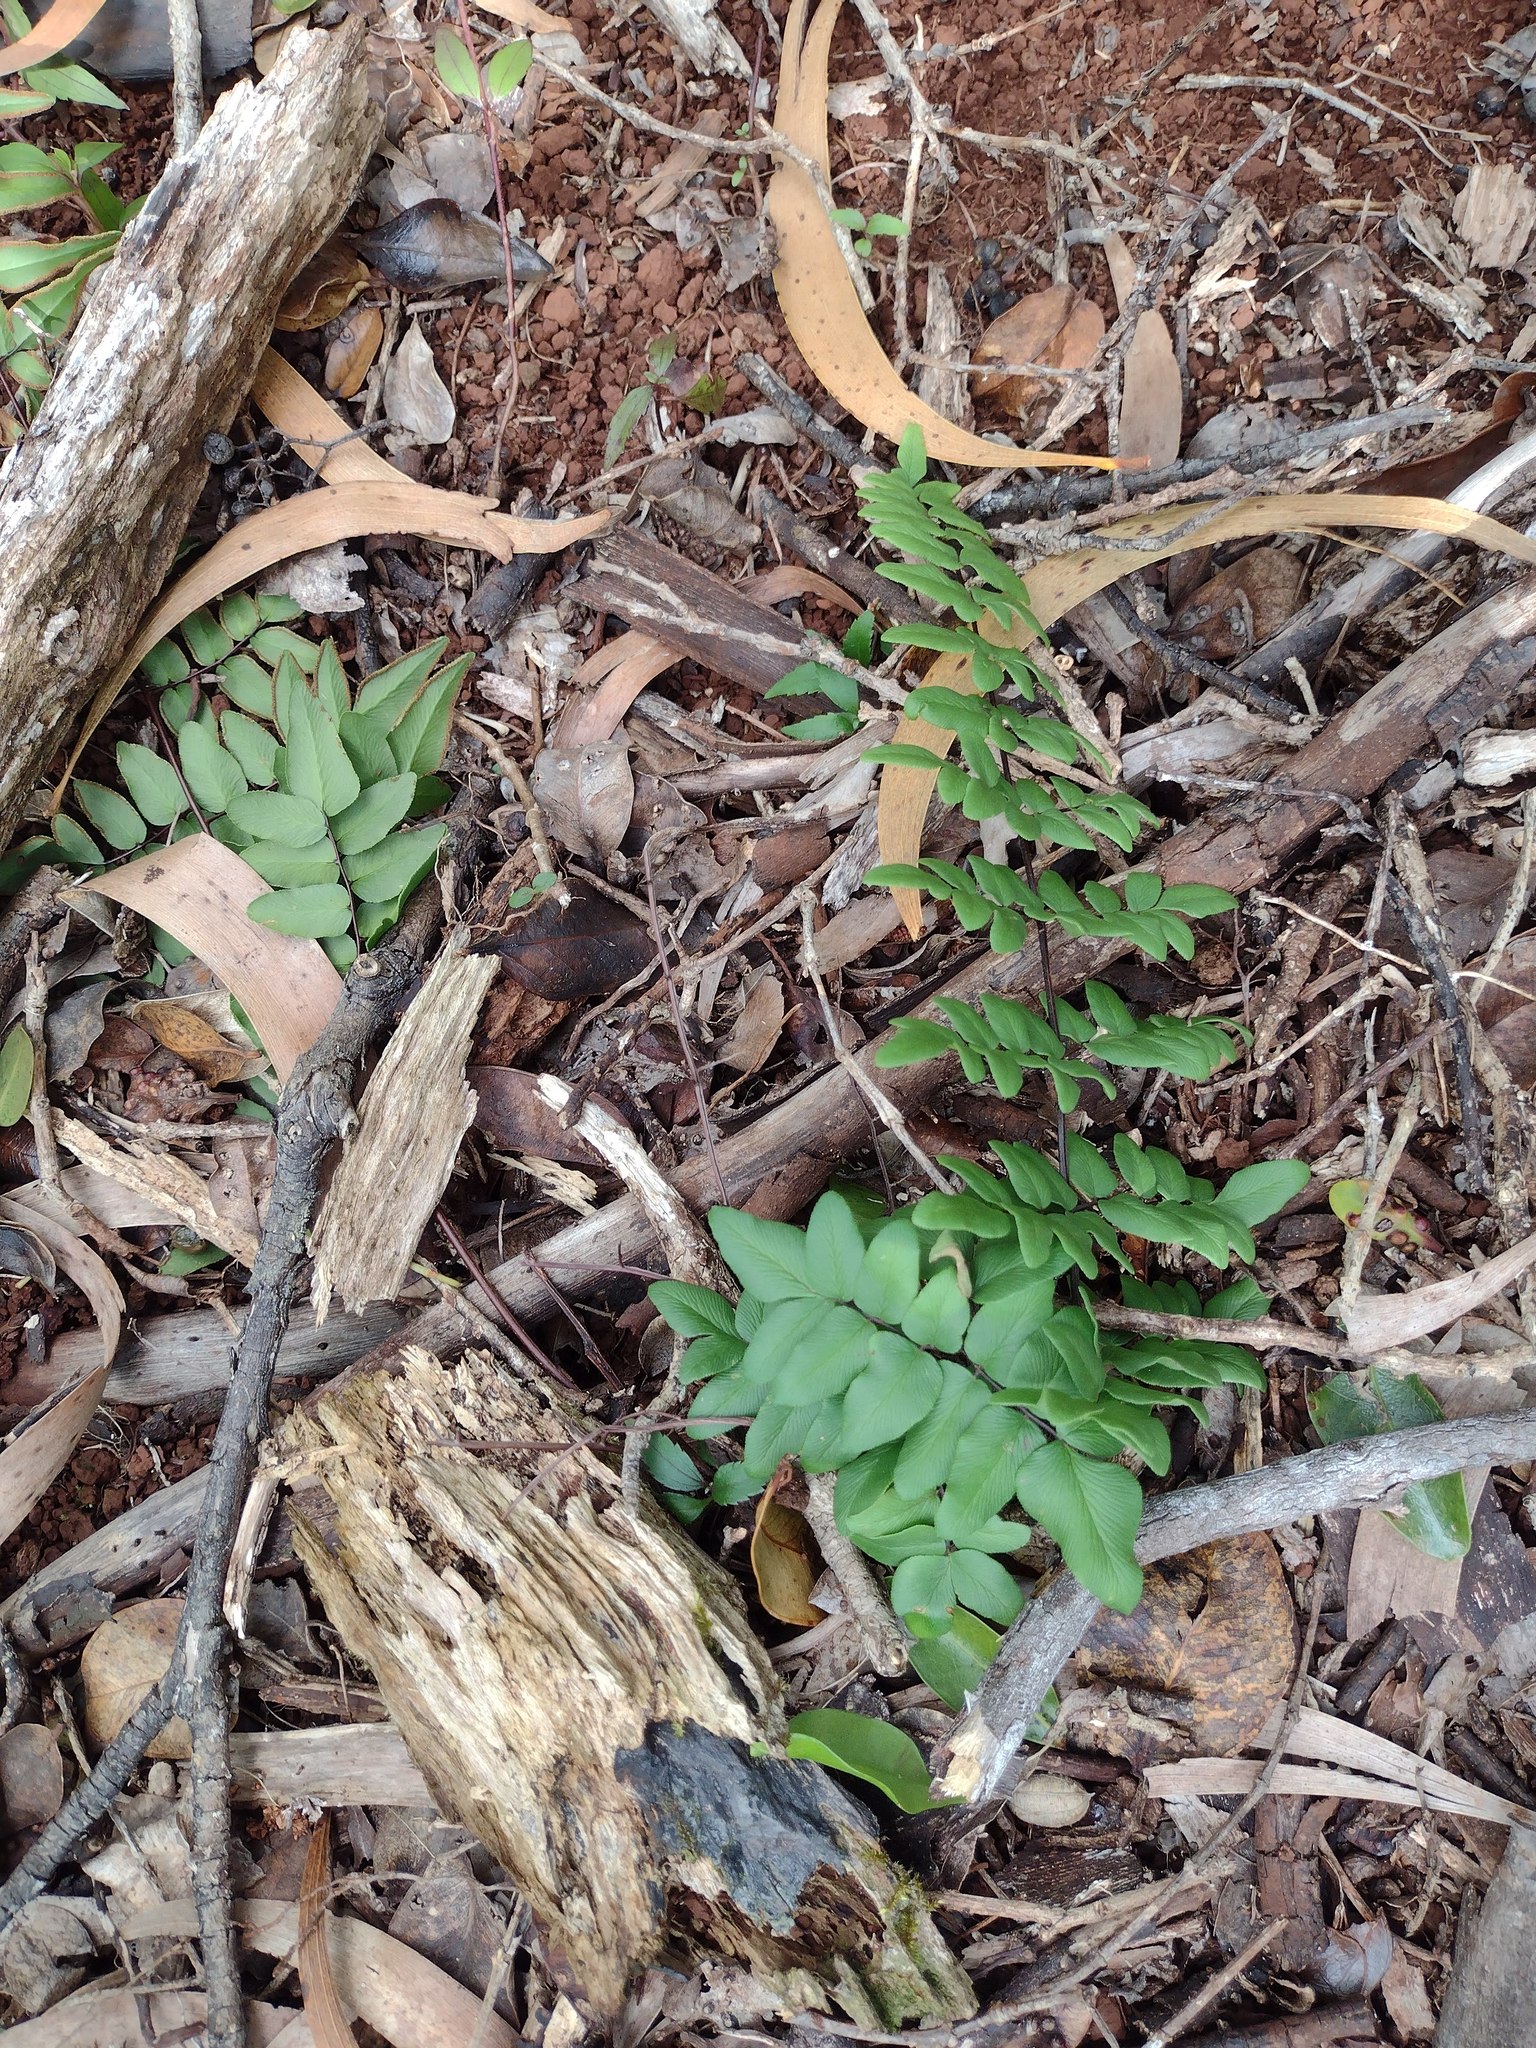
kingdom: Plantae
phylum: Tracheophyta
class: Polypodiopsida
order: Polypodiales
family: Pteridaceae
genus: Cheilanthes
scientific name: Cheilanthes viridis
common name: Green cliffbrake
